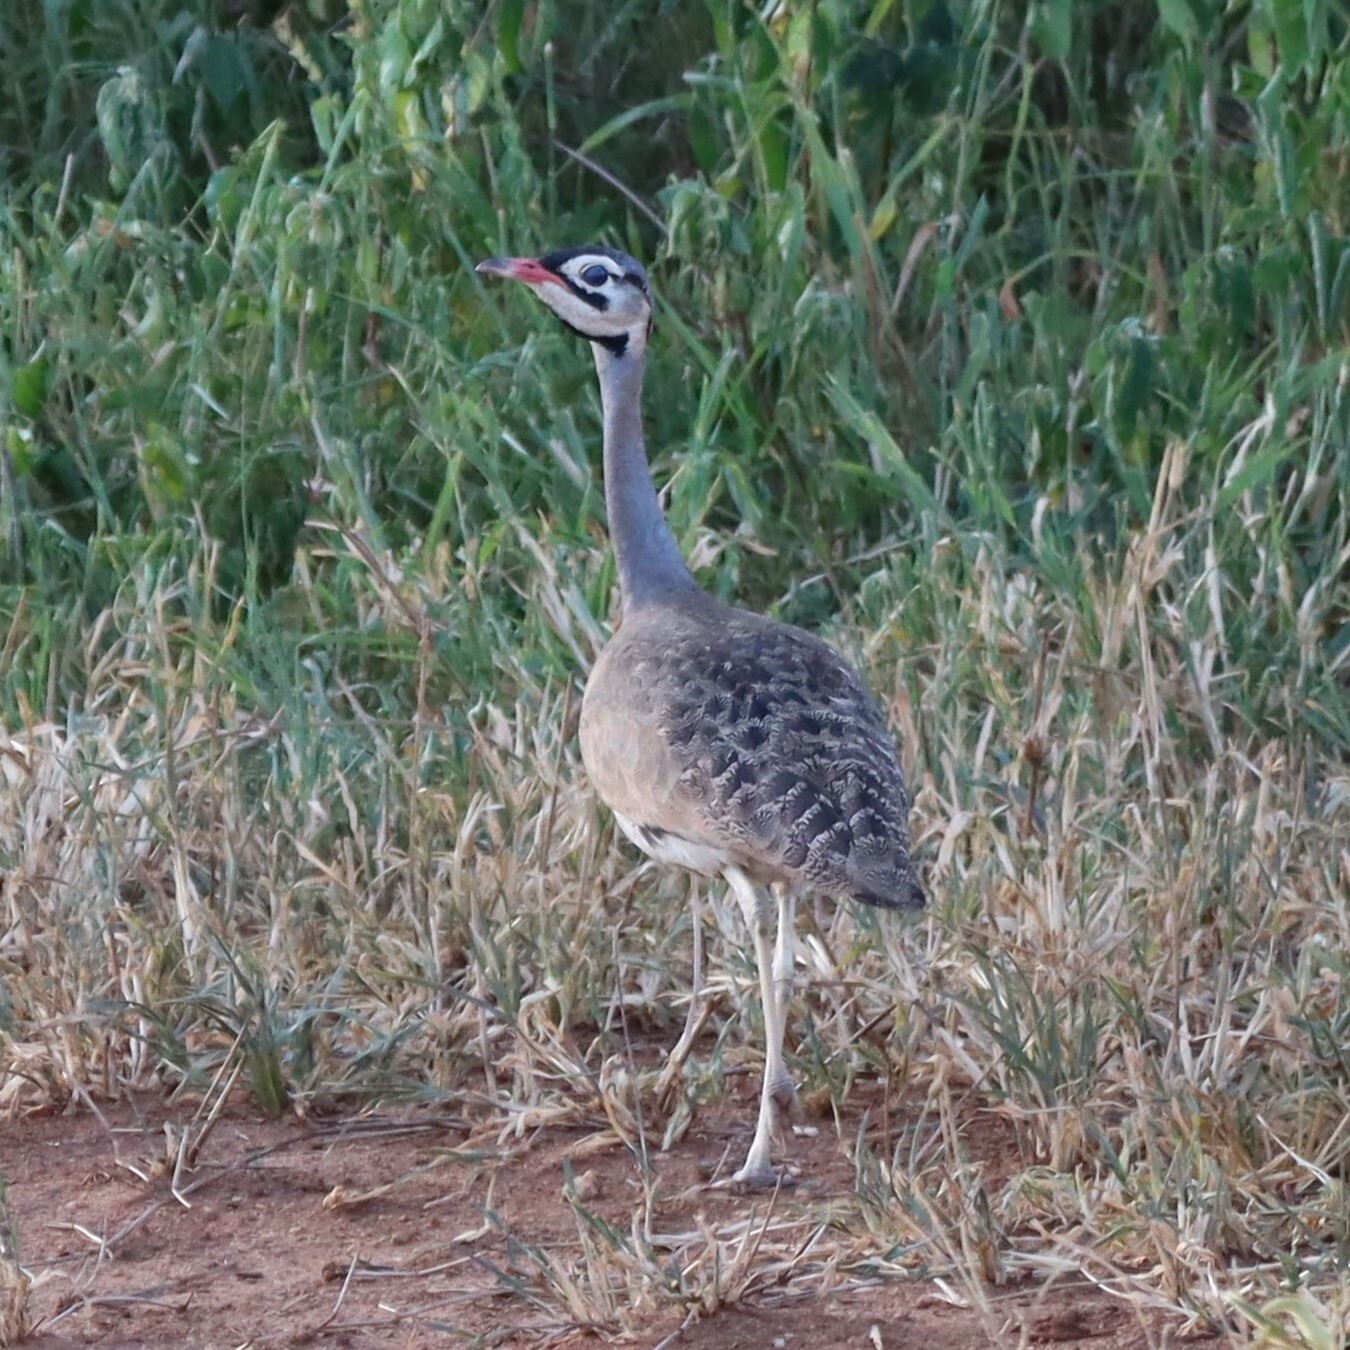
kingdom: Animalia
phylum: Chordata
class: Aves
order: Otidiformes
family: Otididae
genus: Eupodotis
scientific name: Eupodotis senegalensis
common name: White-bellied bustard
